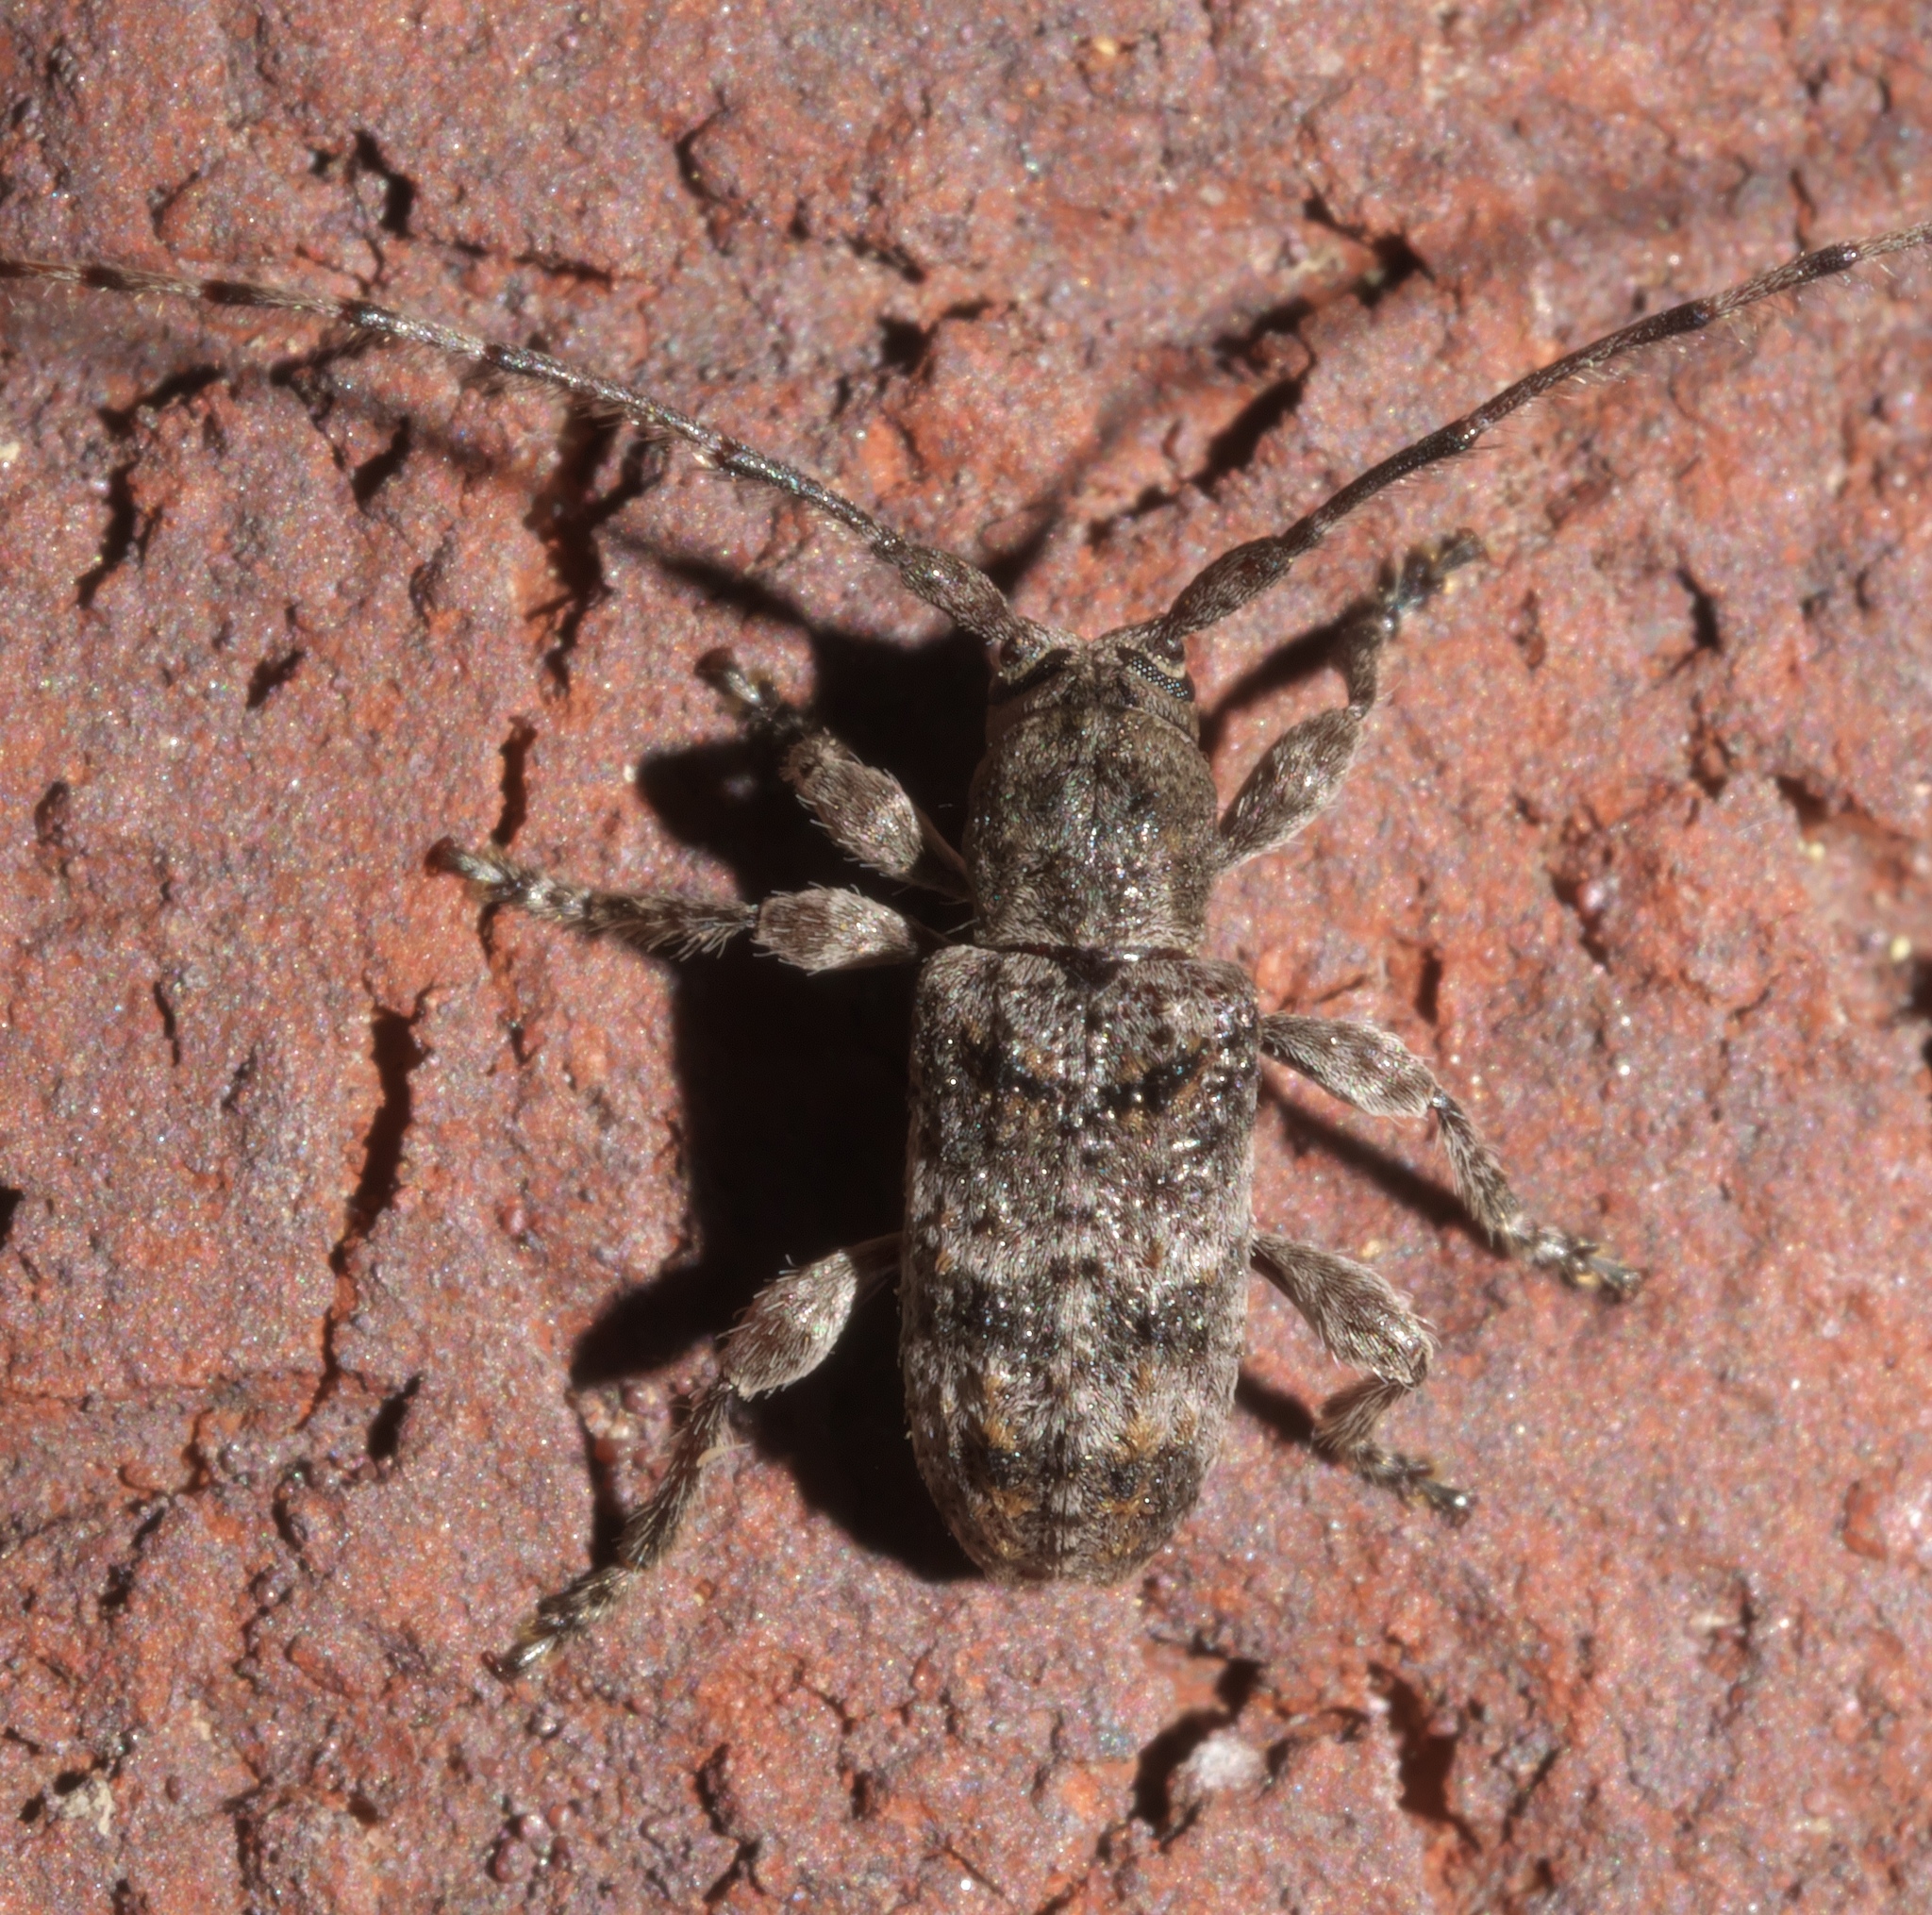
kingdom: Animalia
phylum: Arthropoda
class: Insecta
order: Coleoptera
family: Cerambycidae
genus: Ecyrus
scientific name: Ecyrus dasycerus
